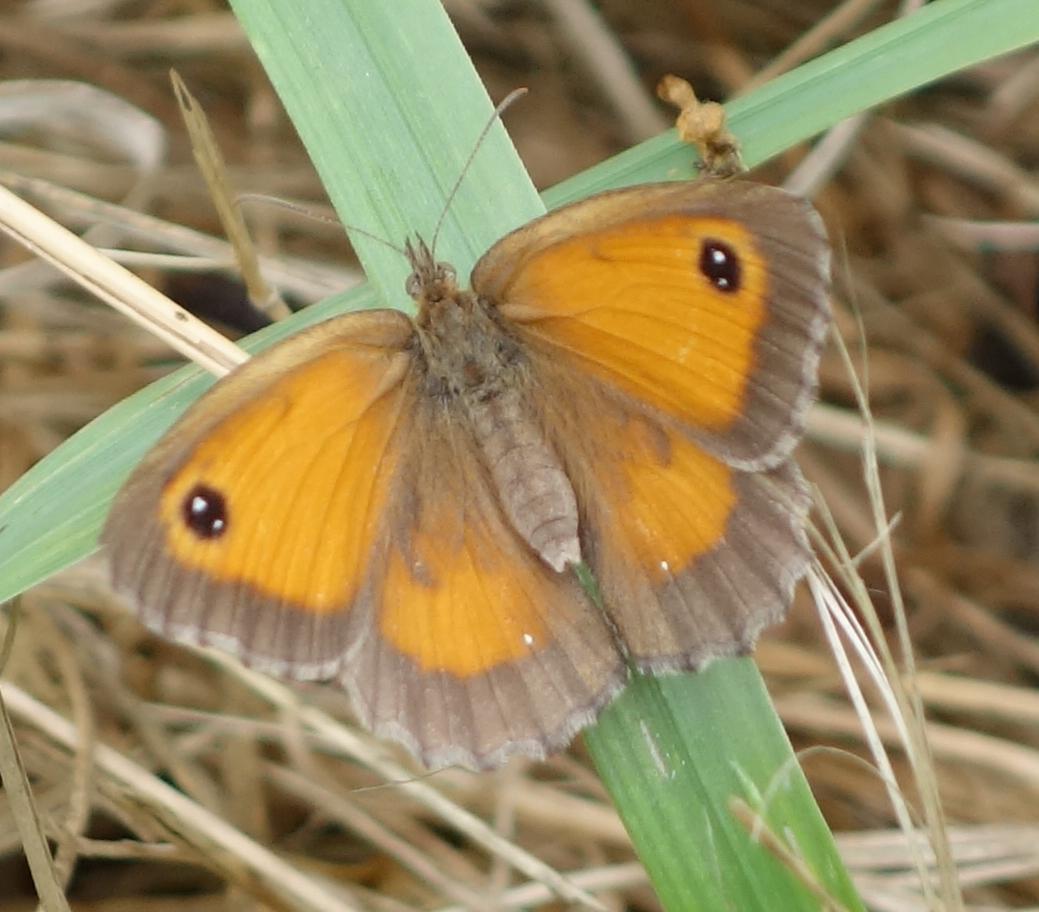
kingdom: Animalia
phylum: Arthropoda
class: Insecta
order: Lepidoptera
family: Nymphalidae
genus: Pyronia
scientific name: Pyronia tithonus
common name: Gatekeeper
